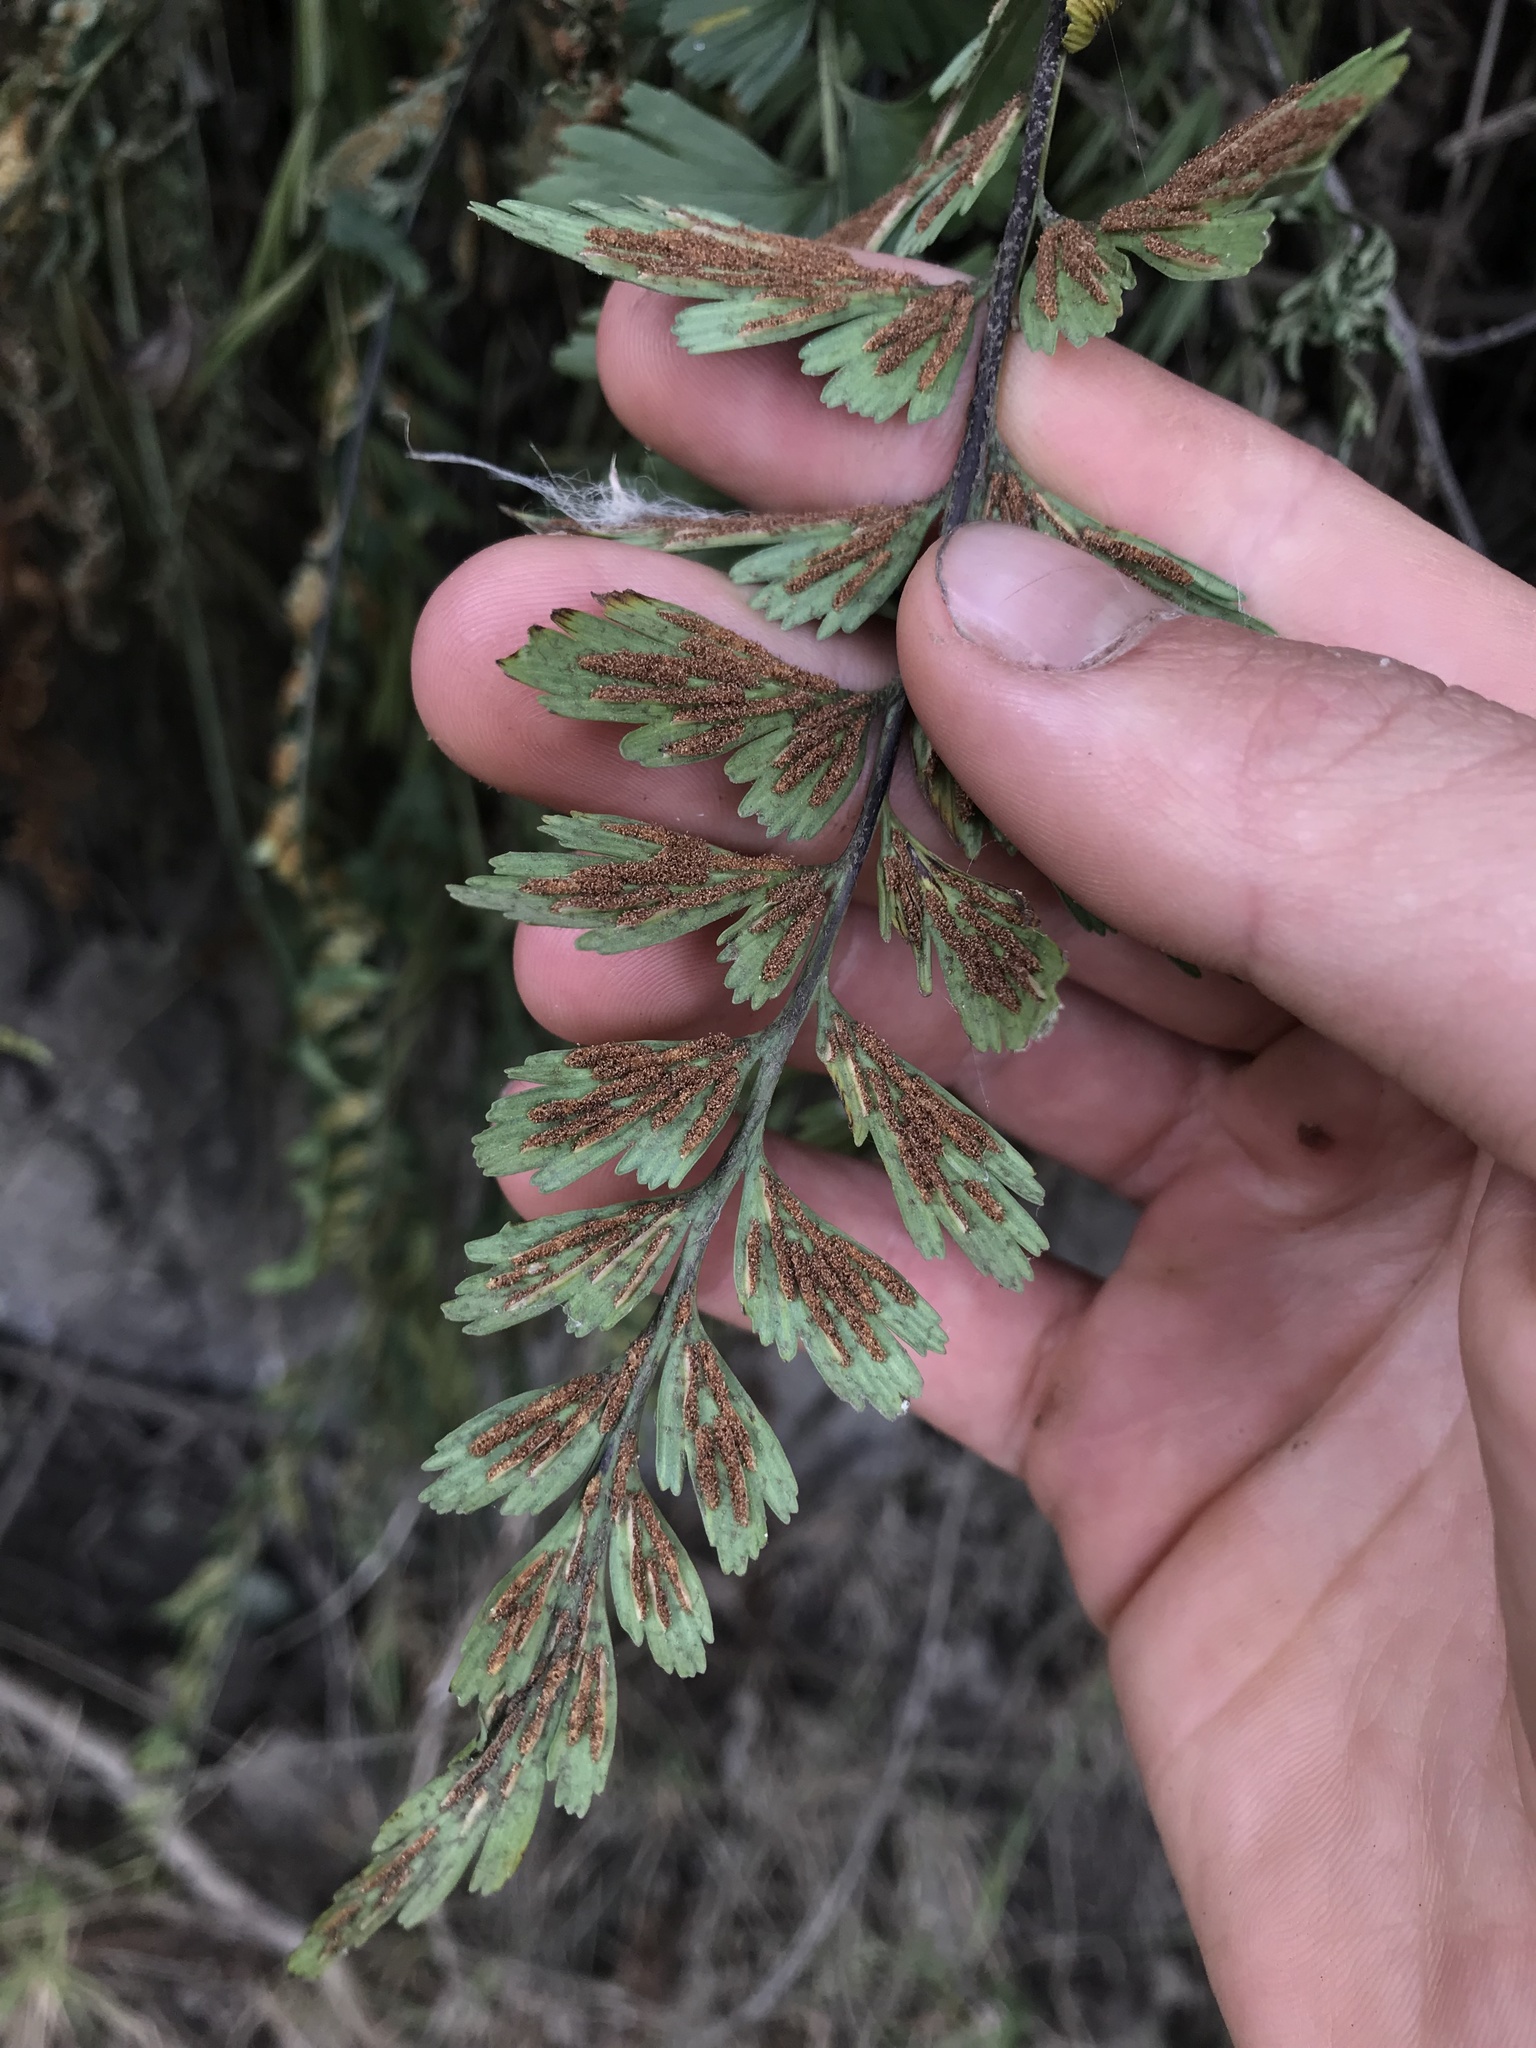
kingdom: Plantae
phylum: Tracheophyta
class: Polypodiopsida
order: Polypodiales
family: Aspleniaceae
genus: Asplenium
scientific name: Asplenium praemorsum
